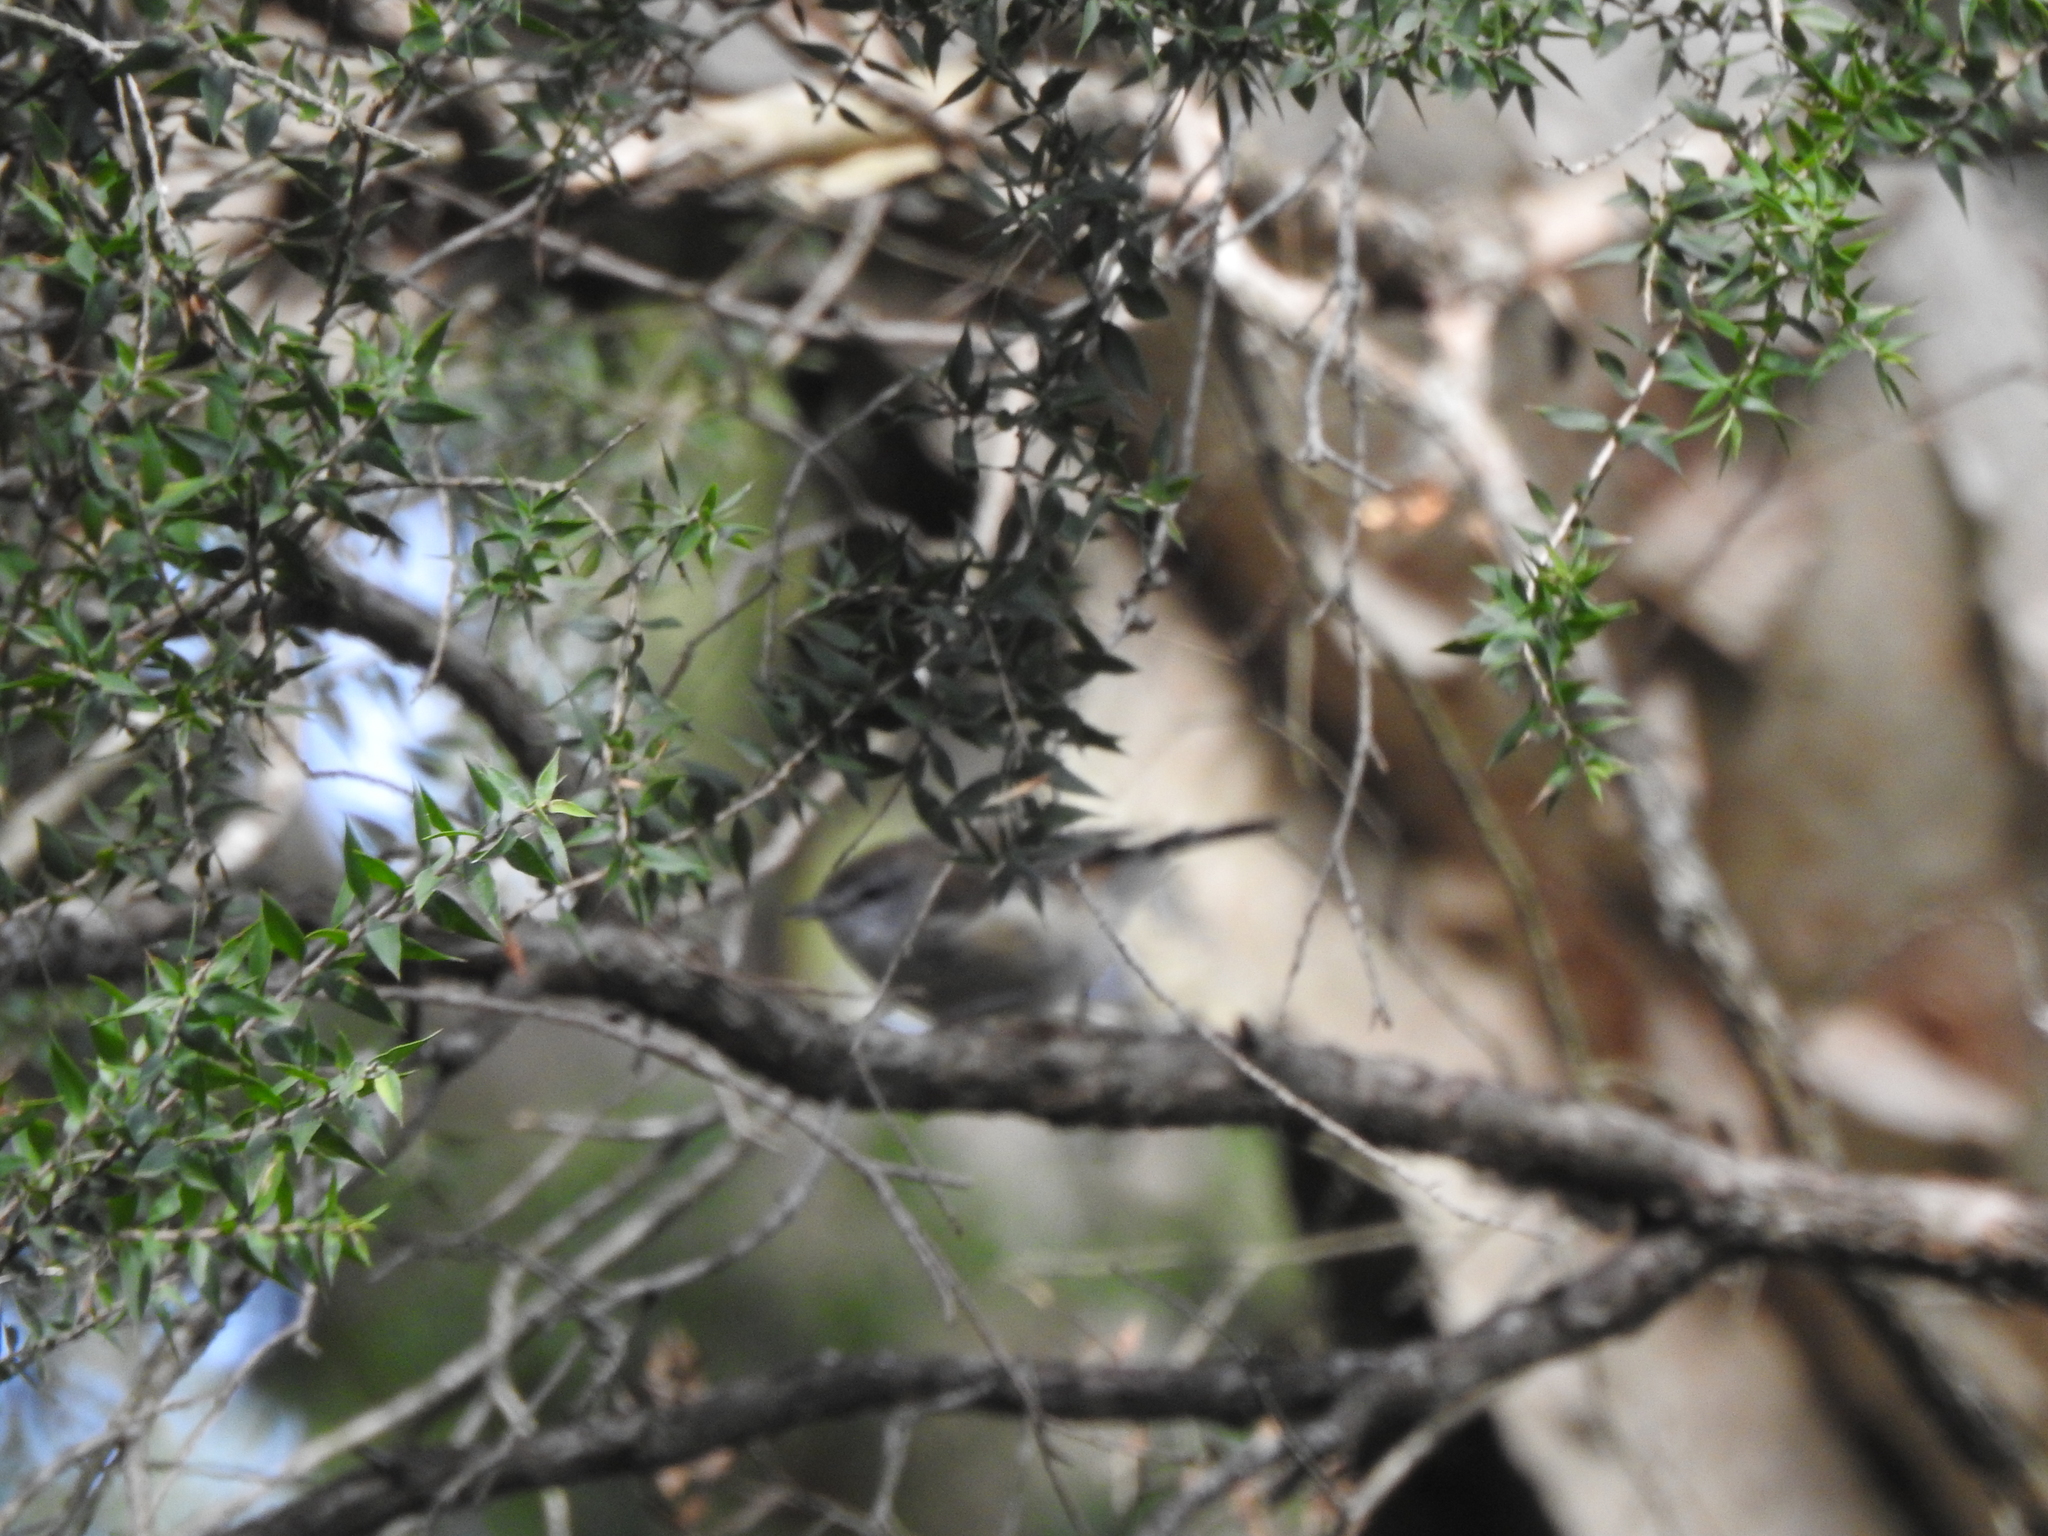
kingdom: Animalia
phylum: Chordata
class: Aves
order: Passeriformes
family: Acanthizidae
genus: Gerygone
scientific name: Gerygone mouki
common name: Brown gerygone
